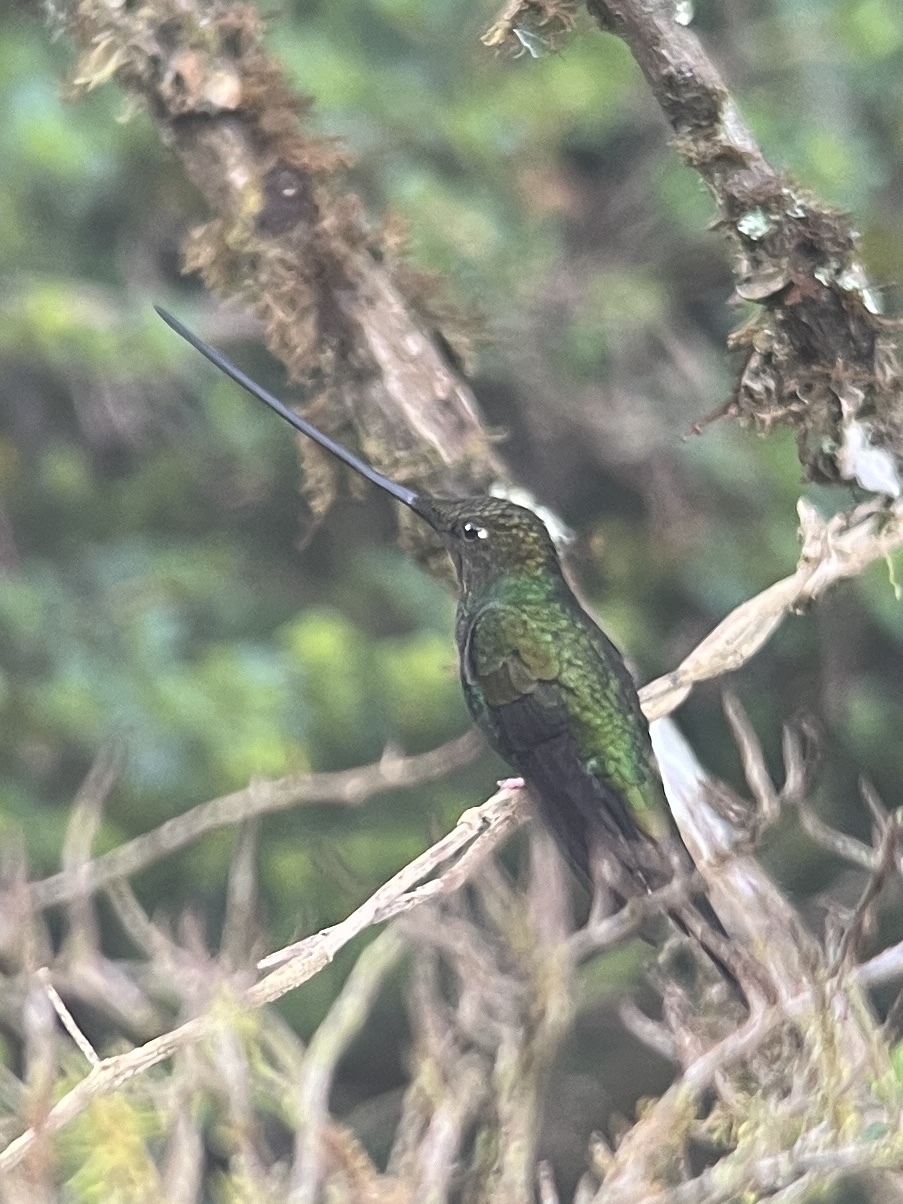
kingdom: Animalia
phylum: Chordata
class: Aves
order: Apodiformes
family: Trochilidae
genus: Ensifera
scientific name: Ensifera ensifera
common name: Sword-billed hummingbird
